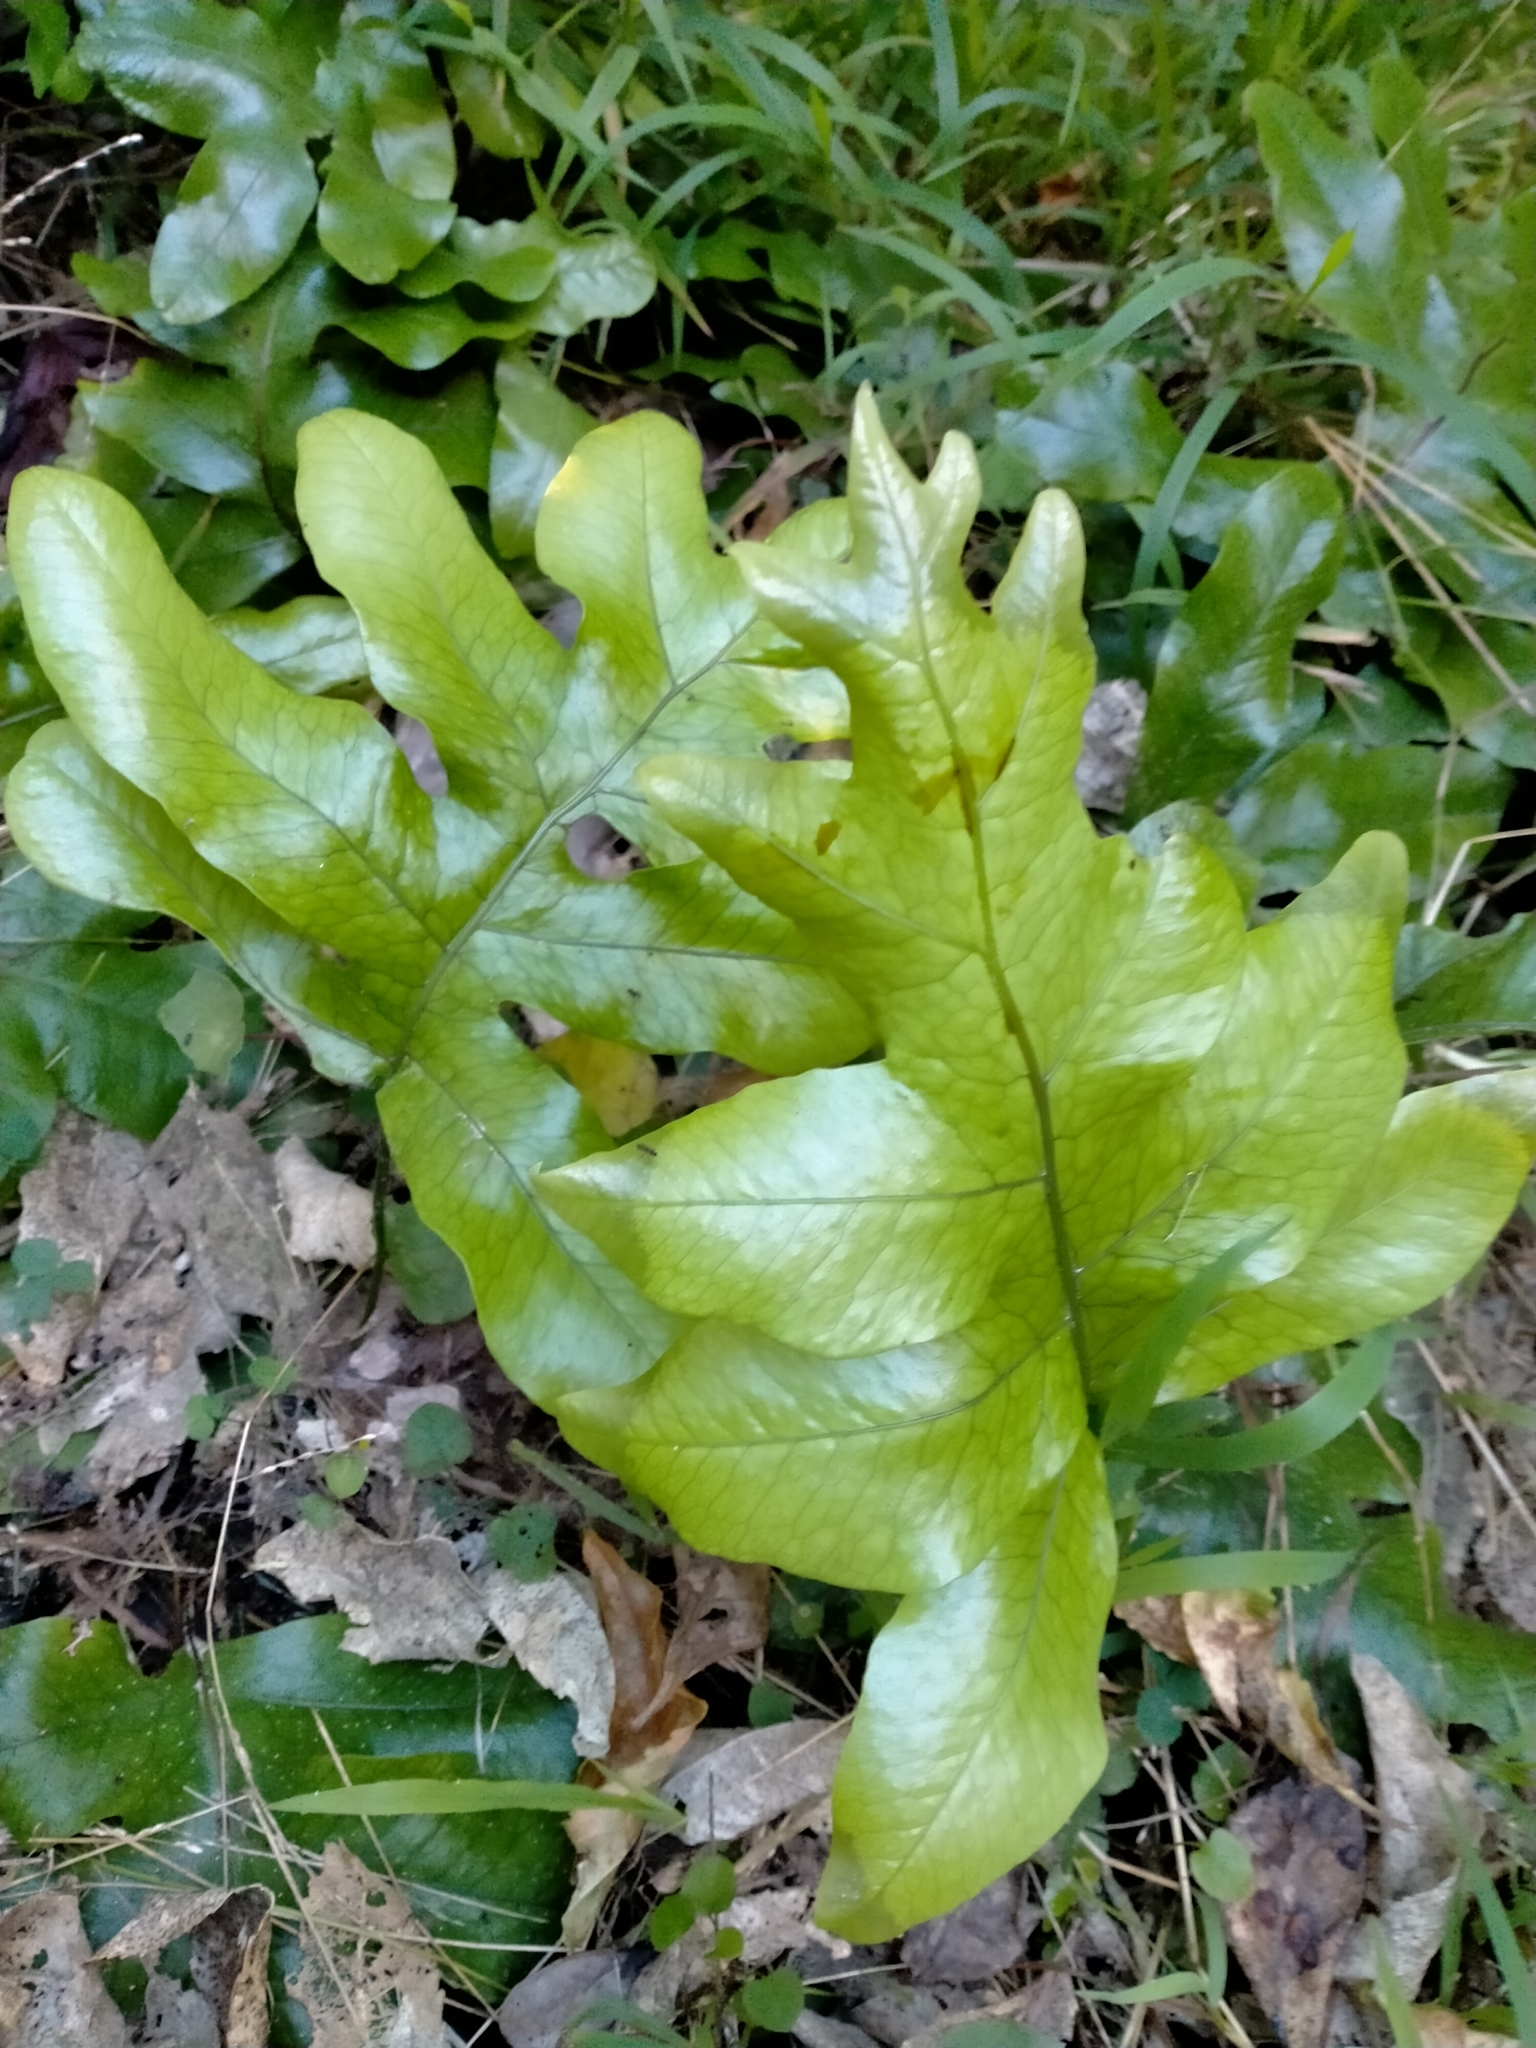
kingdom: Plantae
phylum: Tracheophyta
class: Polypodiopsida
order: Polypodiales
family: Polypodiaceae
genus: Lecanopteris
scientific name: Lecanopteris pustulata
